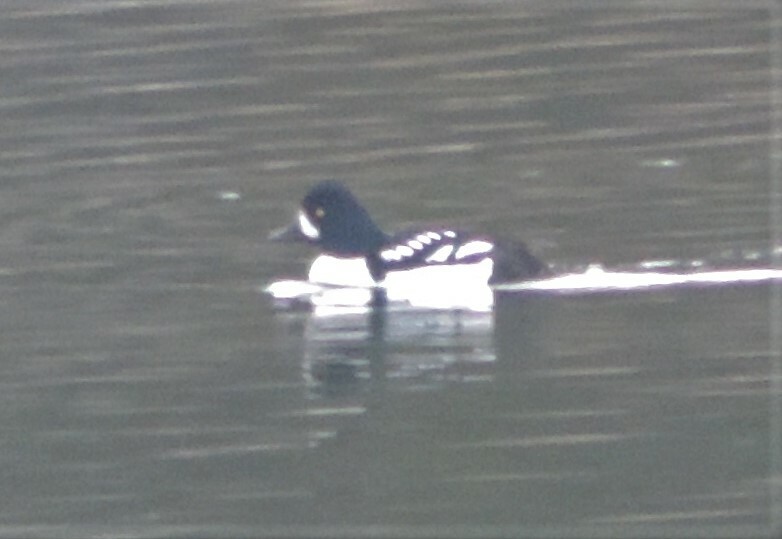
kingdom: Animalia
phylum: Chordata
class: Aves
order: Anseriformes
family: Anatidae
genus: Bucephala
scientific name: Bucephala islandica
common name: Barrow's goldeneye
